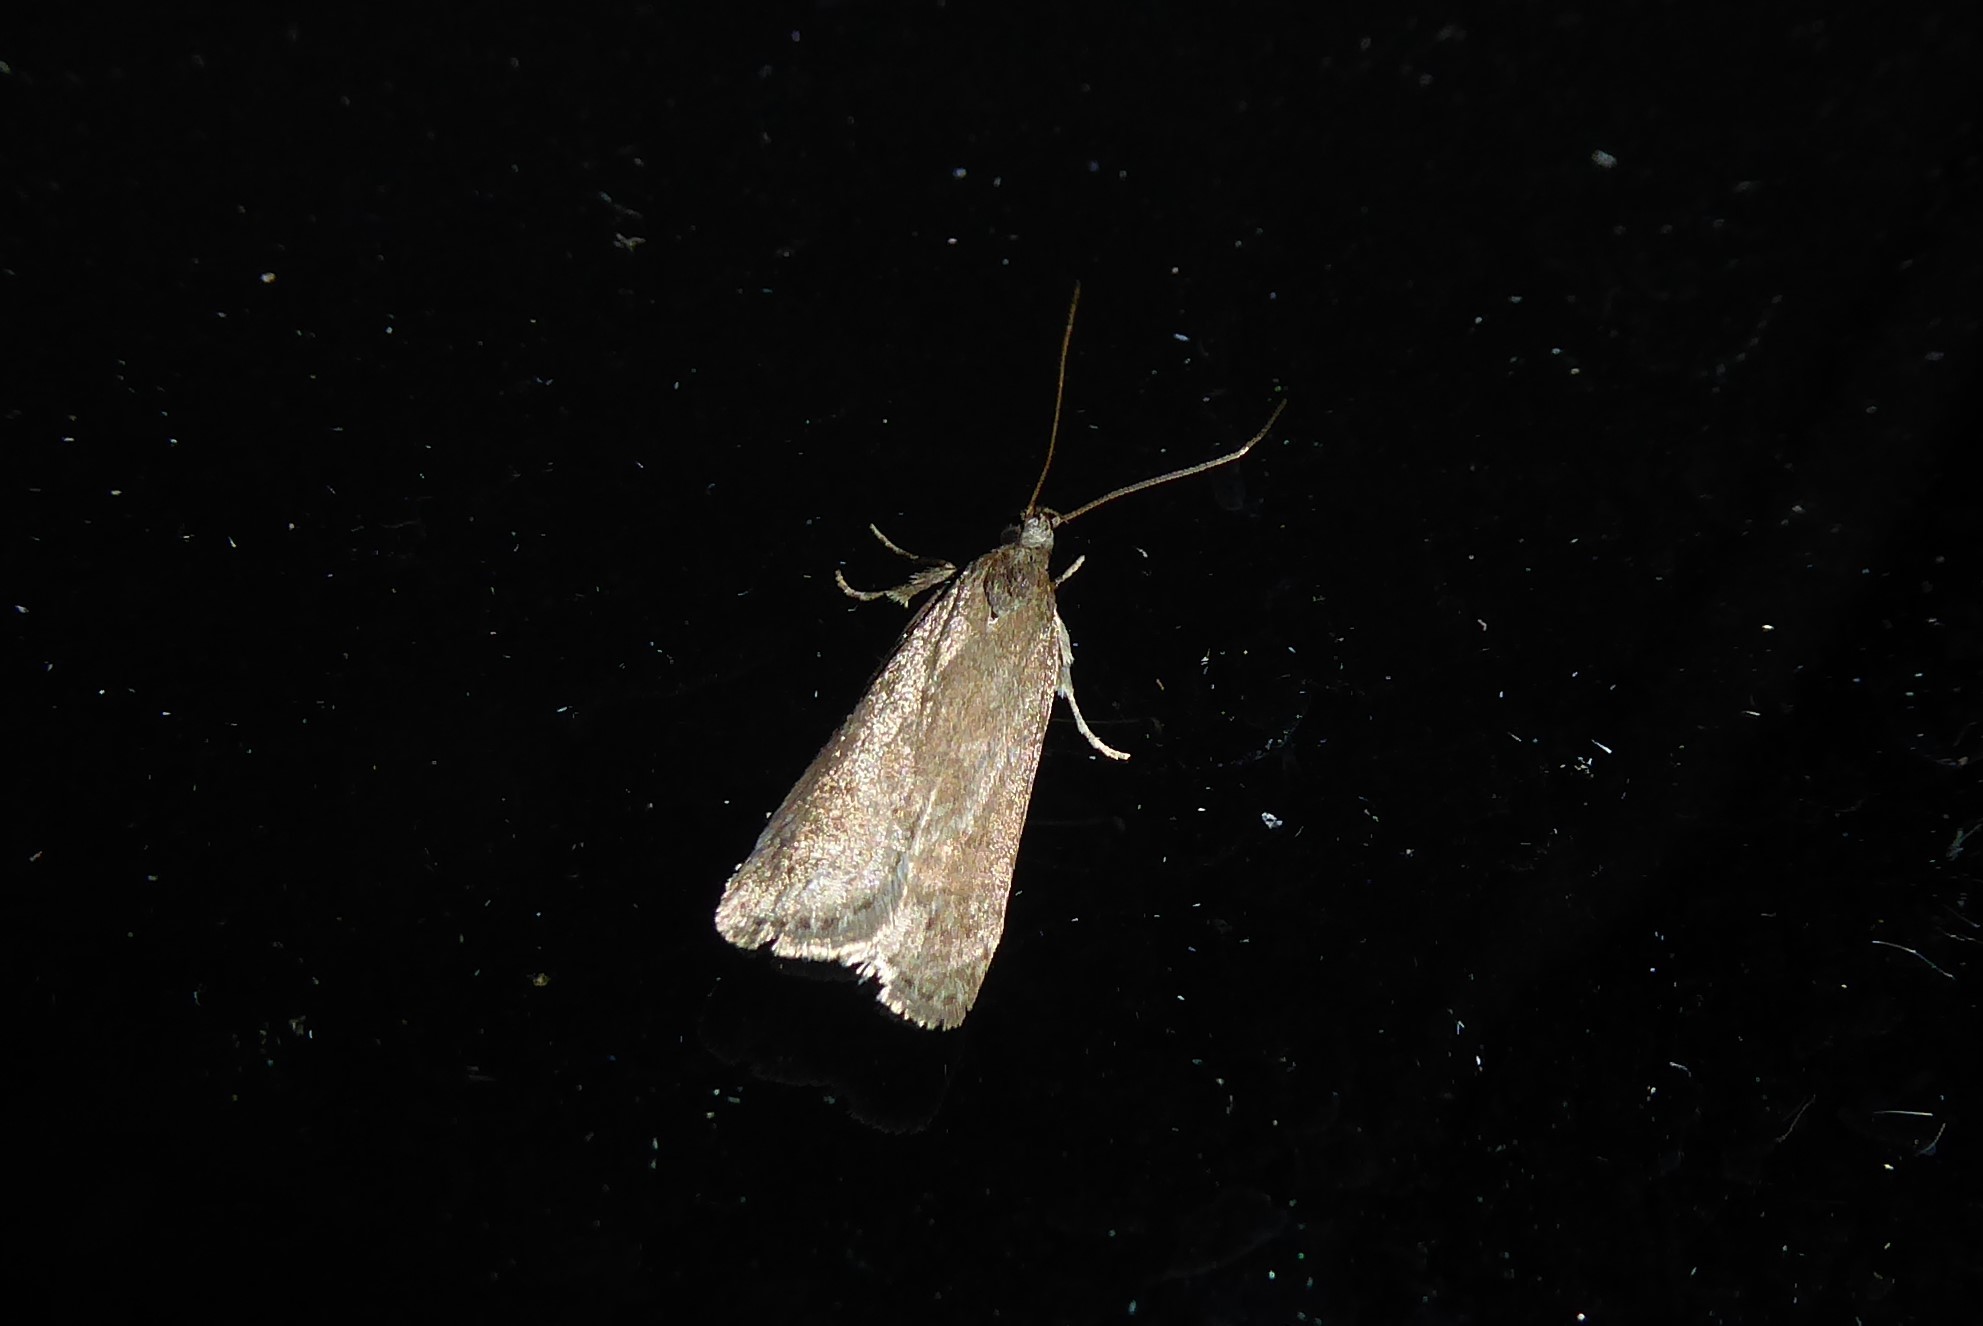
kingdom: Animalia
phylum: Arthropoda
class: Insecta
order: Lepidoptera
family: Depressariidae
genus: Phaeosaces
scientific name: Phaeosaces apocrypta
